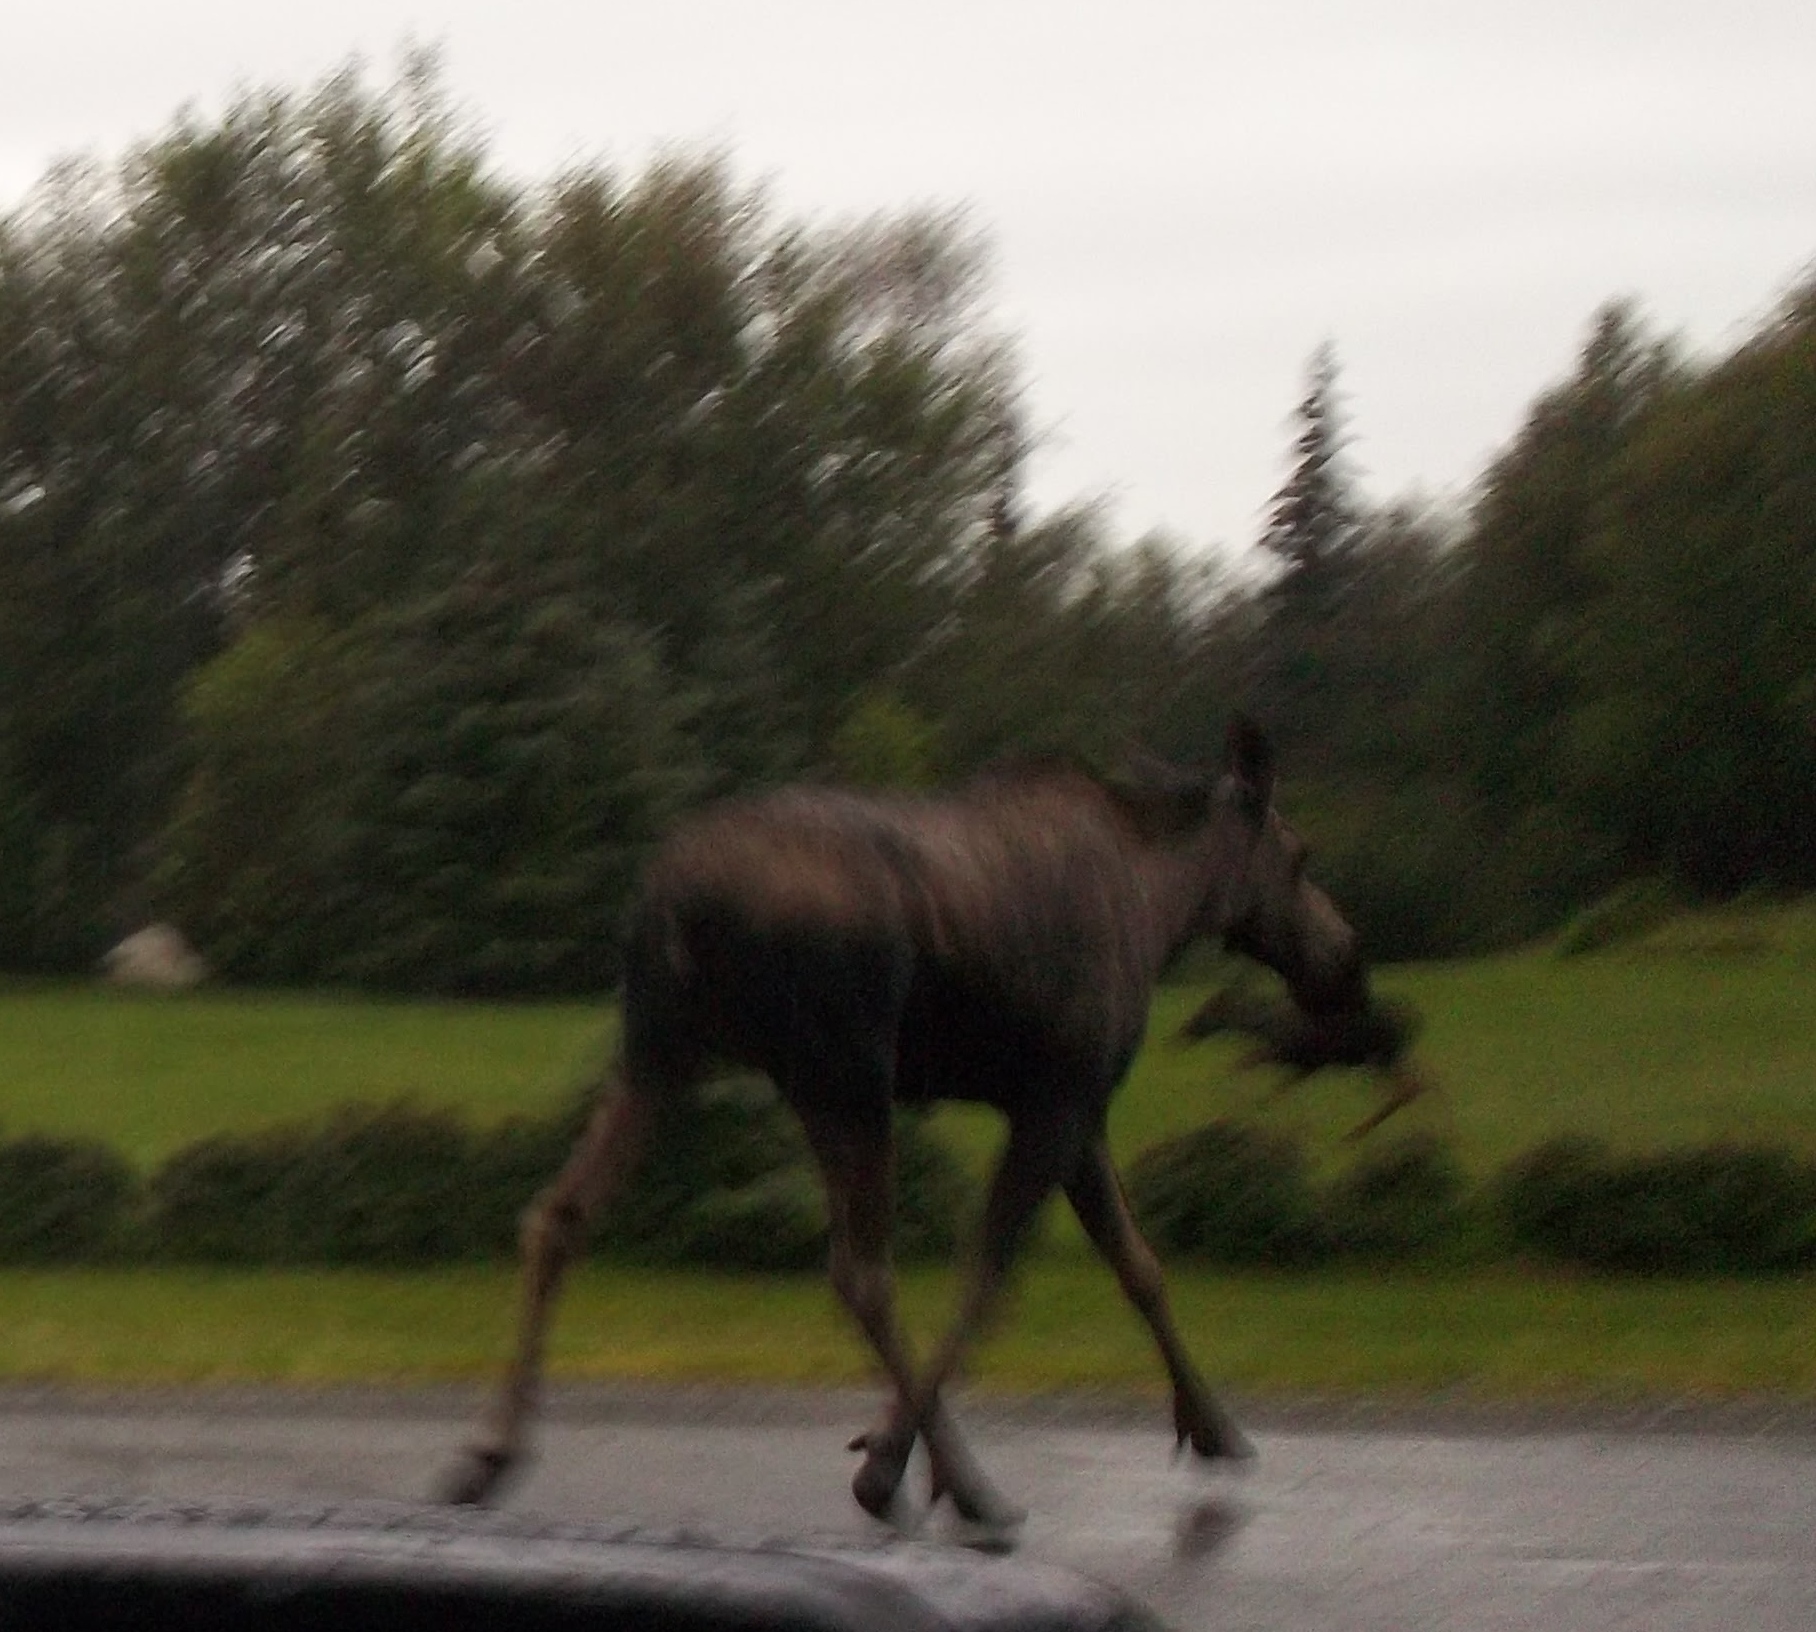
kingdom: Animalia
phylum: Chordata
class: Mammalia
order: Artiodactyla
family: Cervidae
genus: Alces
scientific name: Alces alces
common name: Moose
